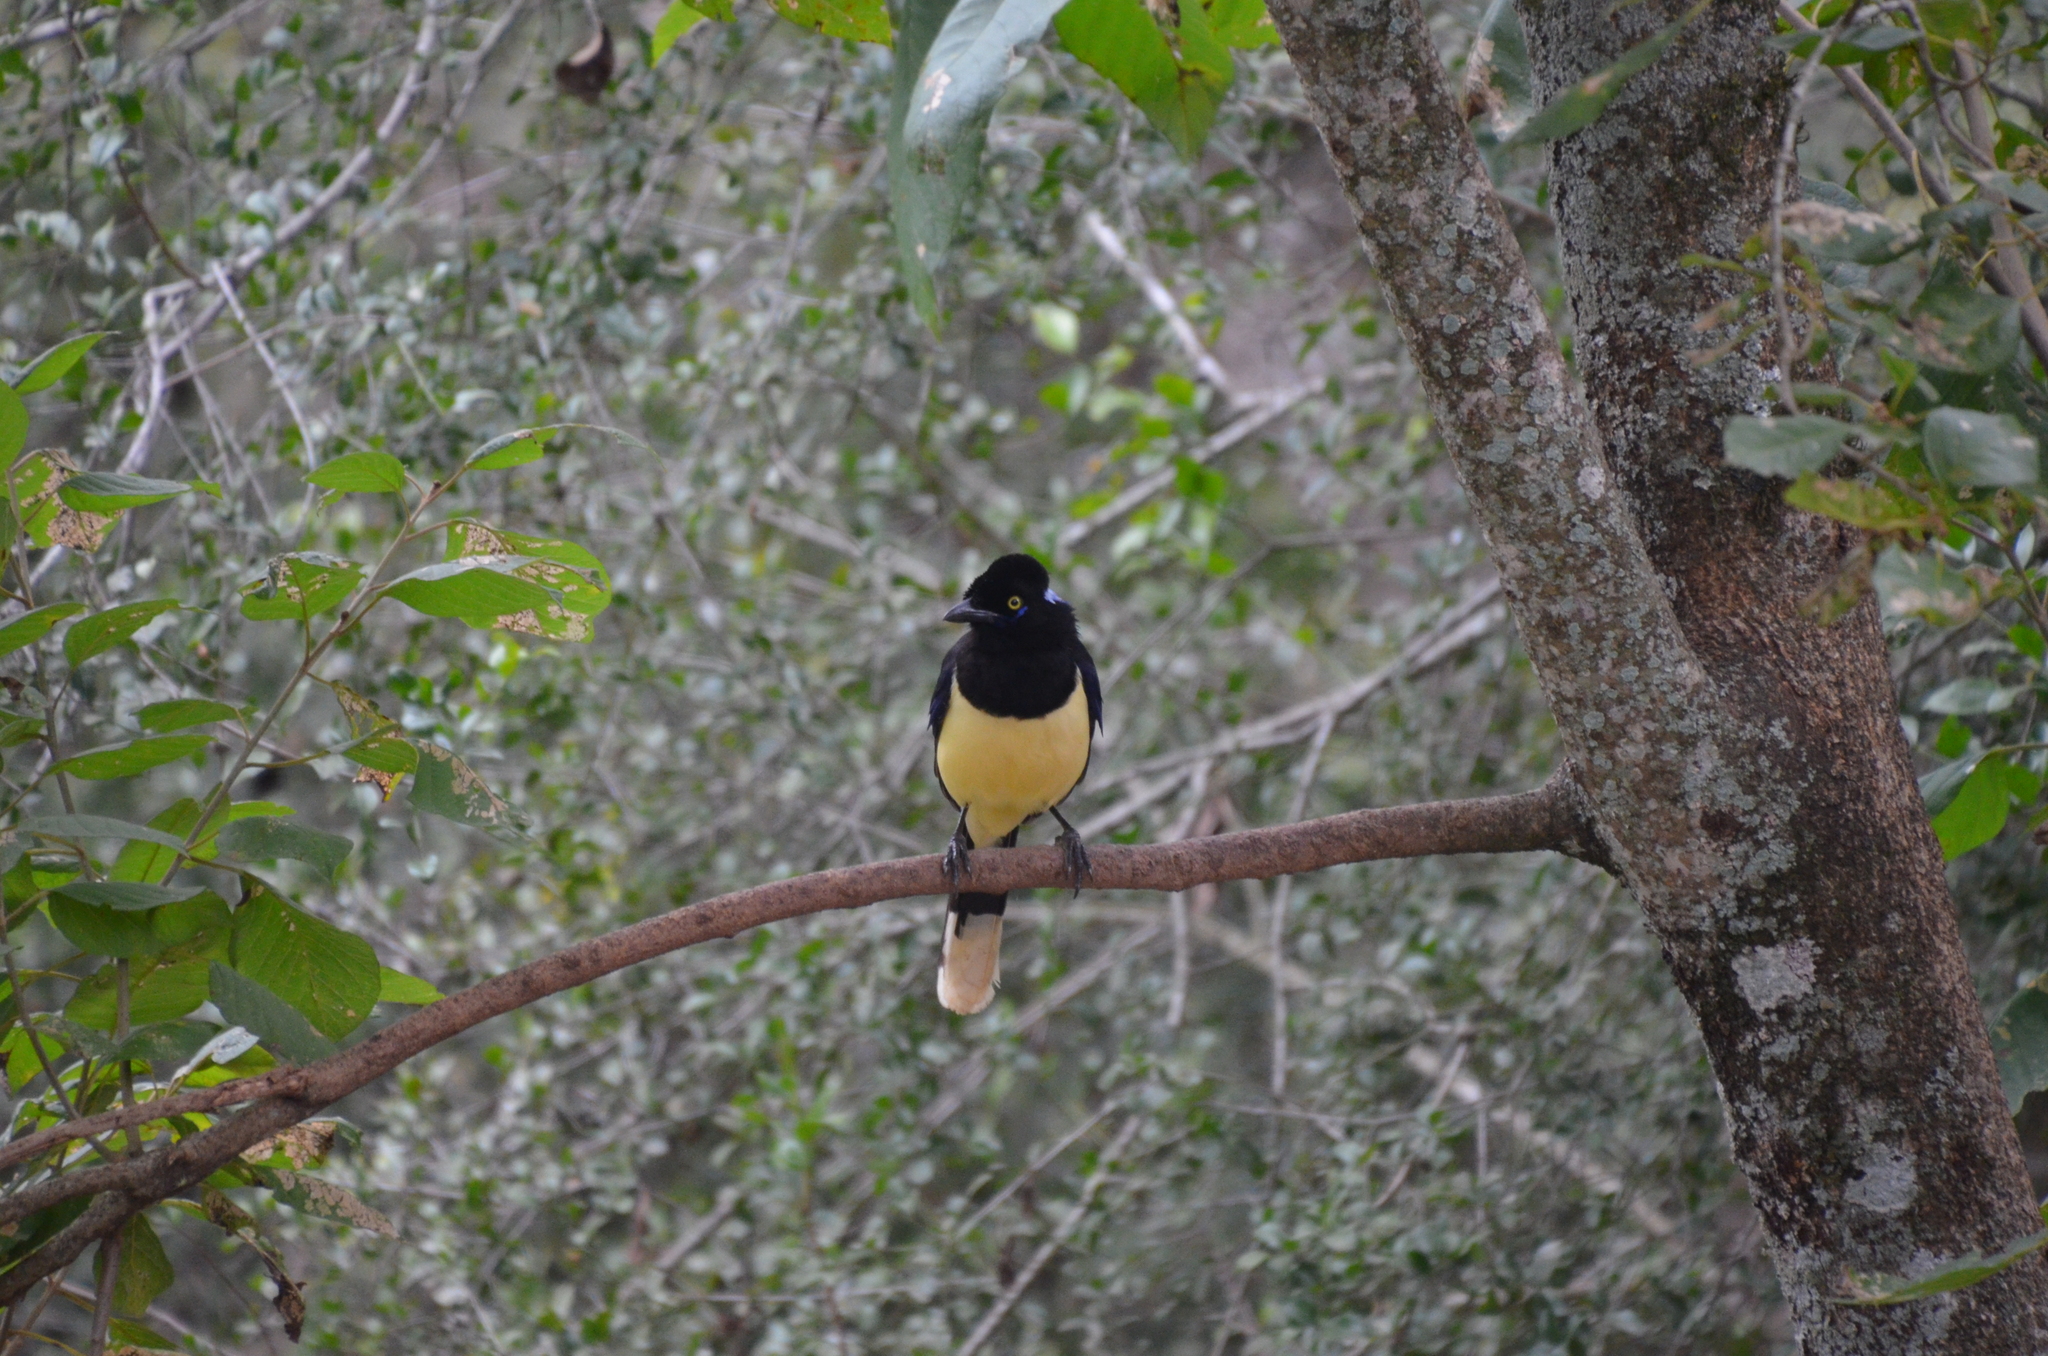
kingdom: Animalia
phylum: Chordata
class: Aves
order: Passeriformes
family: Corvidae
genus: Cyanocorax
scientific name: Cyanocorax chrysops
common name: Plush-crested jay
